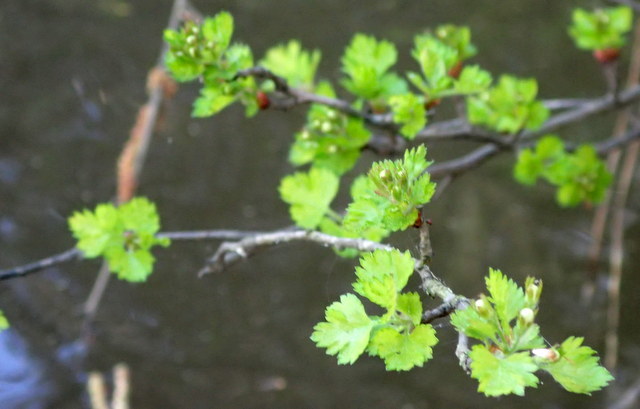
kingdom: Plantae
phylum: Tracheophyta
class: Magnoliopsida
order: Rosales
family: Rosaceae
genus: Crataegus
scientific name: Crataegus marshallii
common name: Parsley-hawthorn
